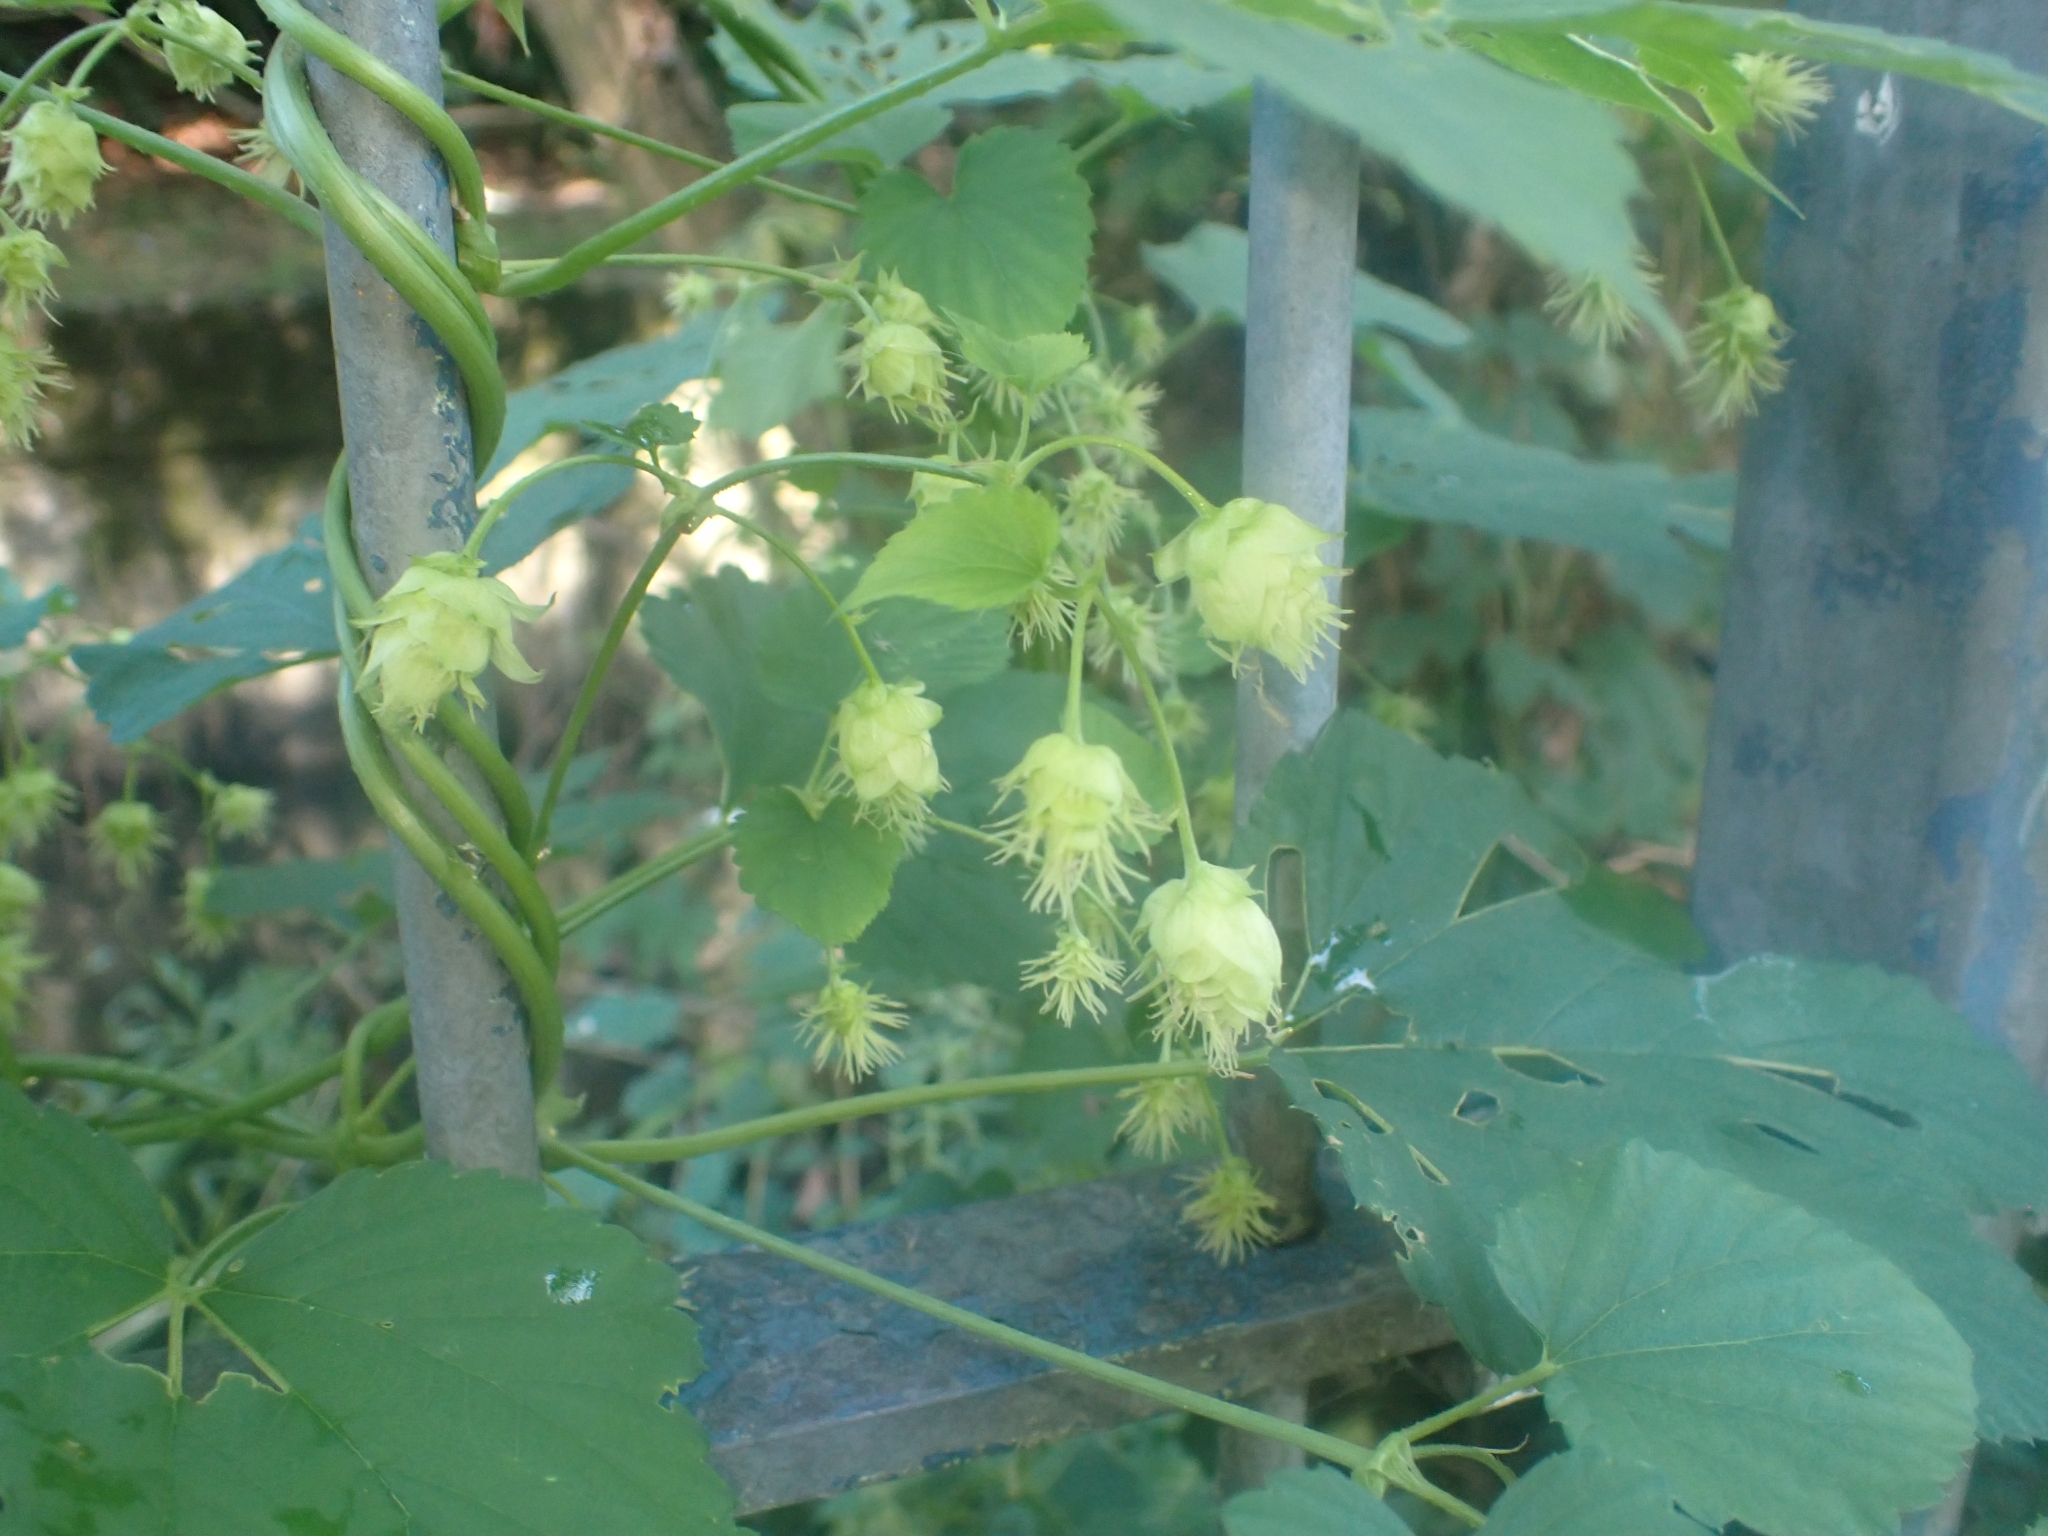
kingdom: Plantae
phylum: Tracheophyta
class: Magnoliopsida
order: Rosales
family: Cannabaceae
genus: Humulus
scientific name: Humulus lupulus
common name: Hop
